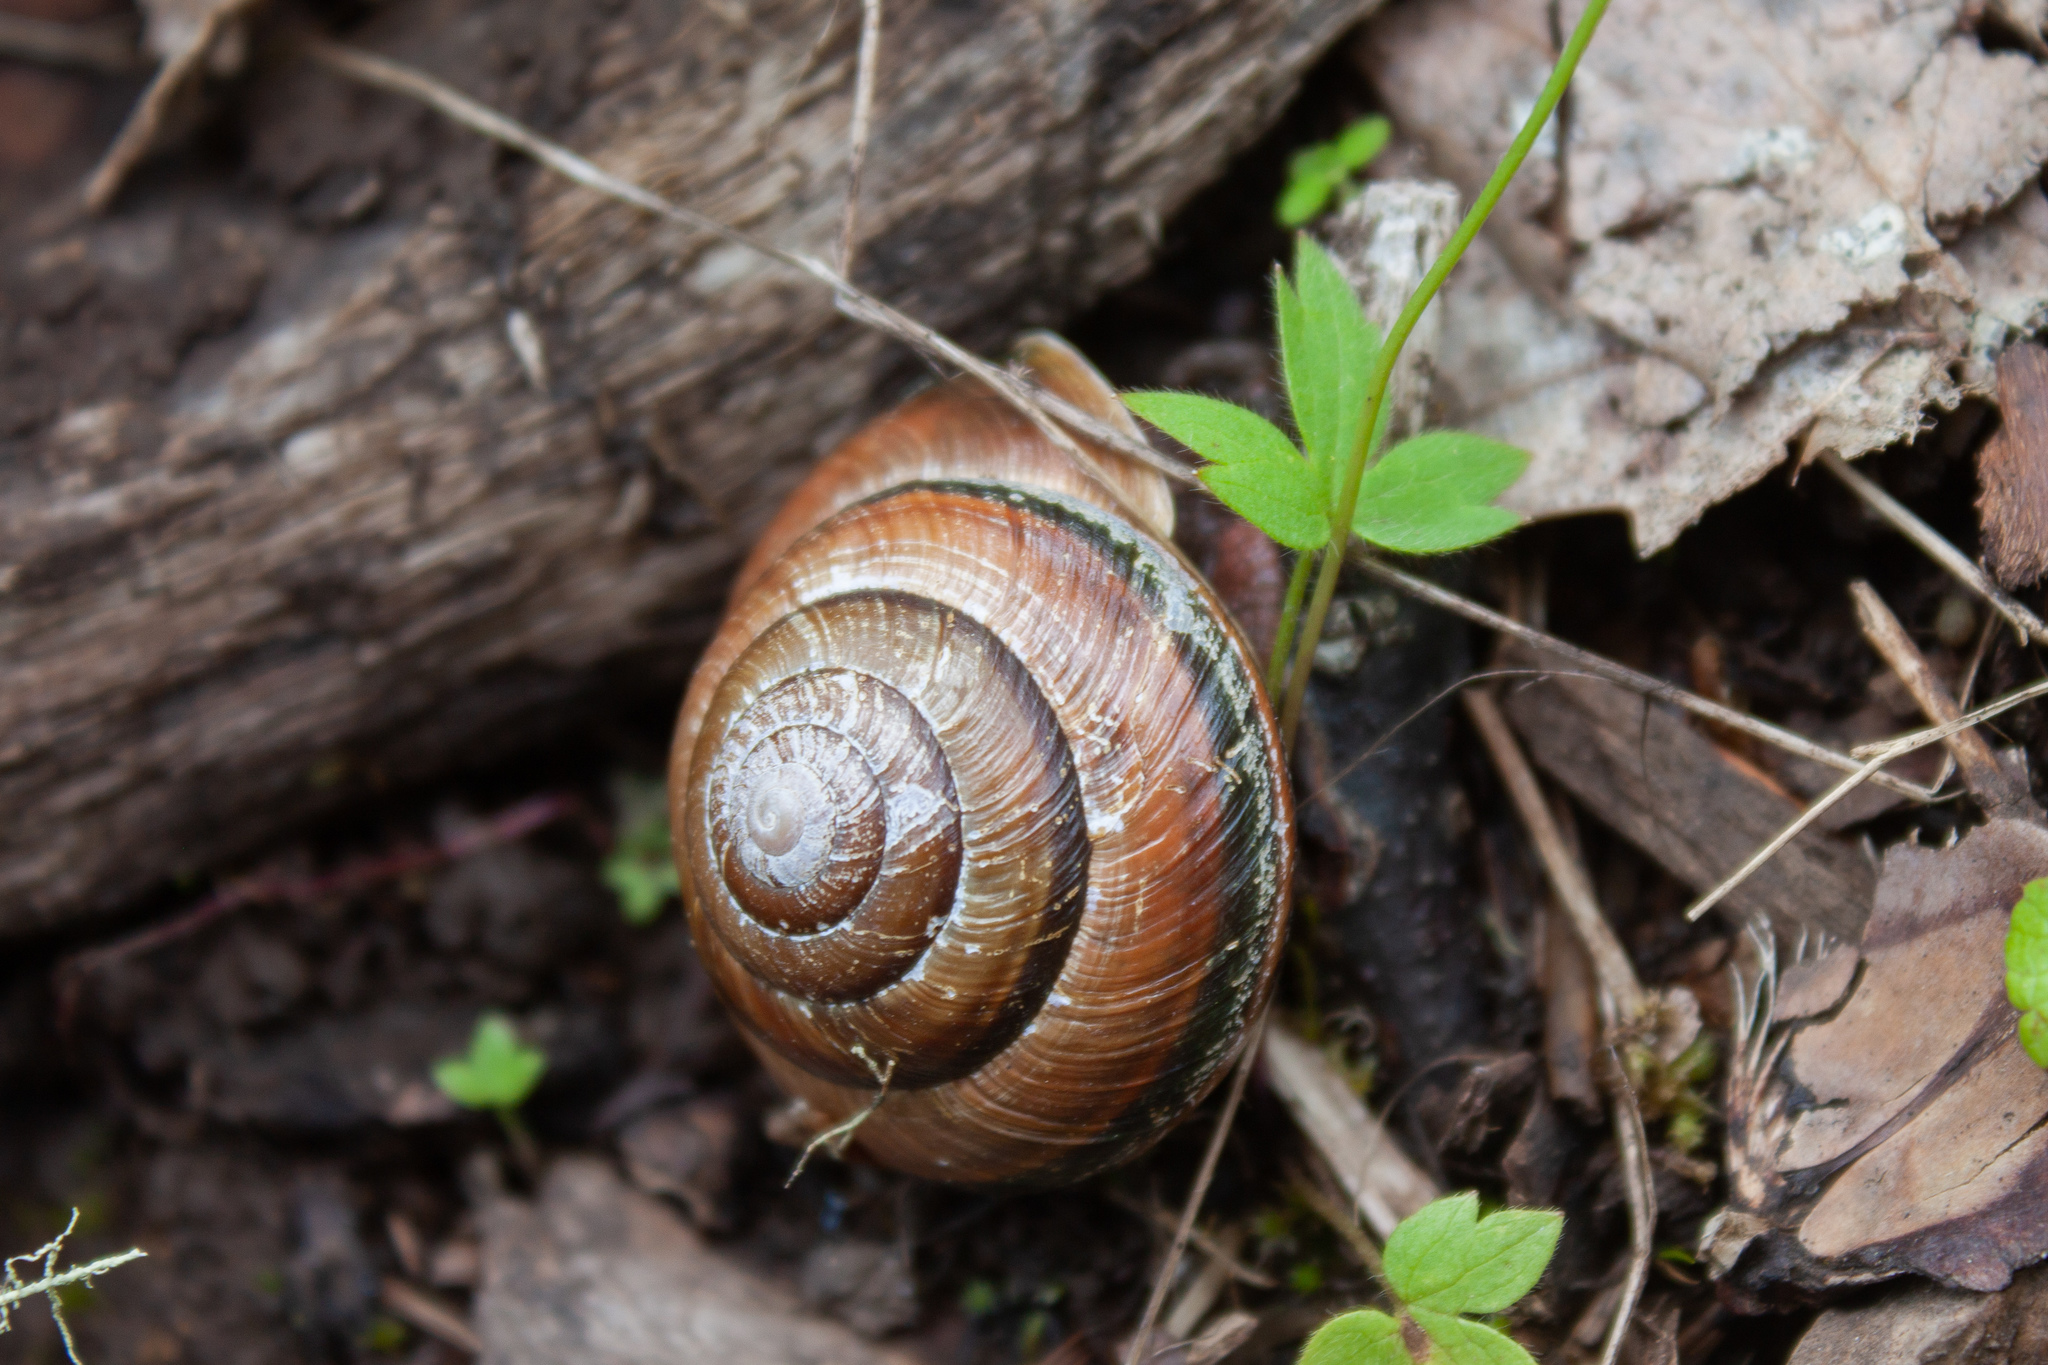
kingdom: Animalia
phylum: Mollusca
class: Gastropoda
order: Stylommatophora
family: Xanthonychidae
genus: Monadenia
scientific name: Monadenia fidelis
